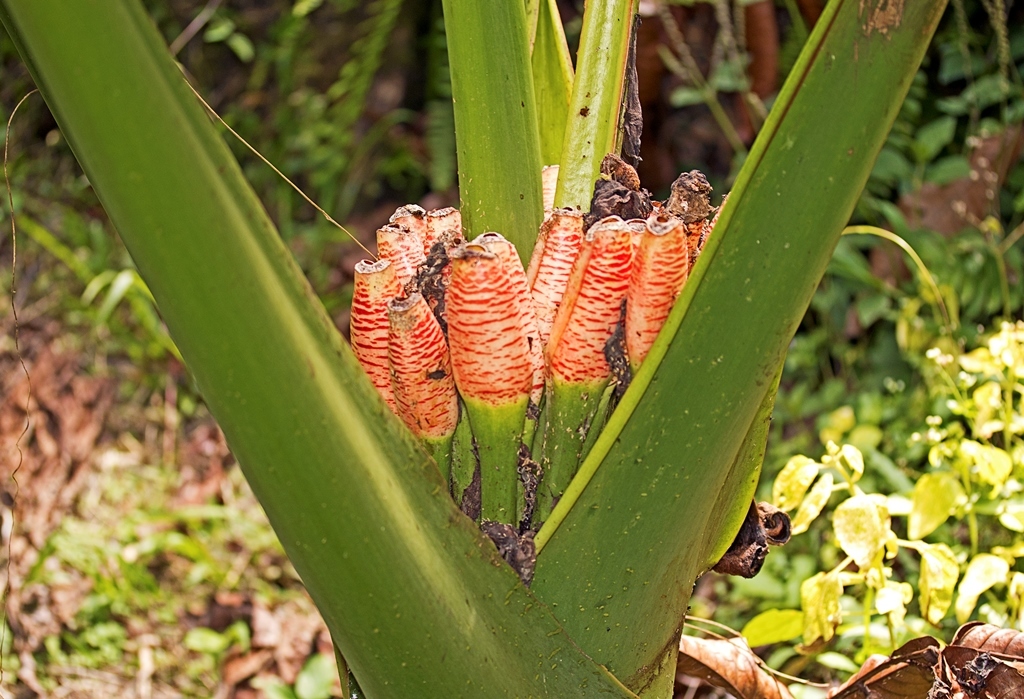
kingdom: Plantae
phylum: Tracheophyta
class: Liliopsida
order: Alismatales
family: Araceae
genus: Alocasia
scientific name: Alocasia robusta
